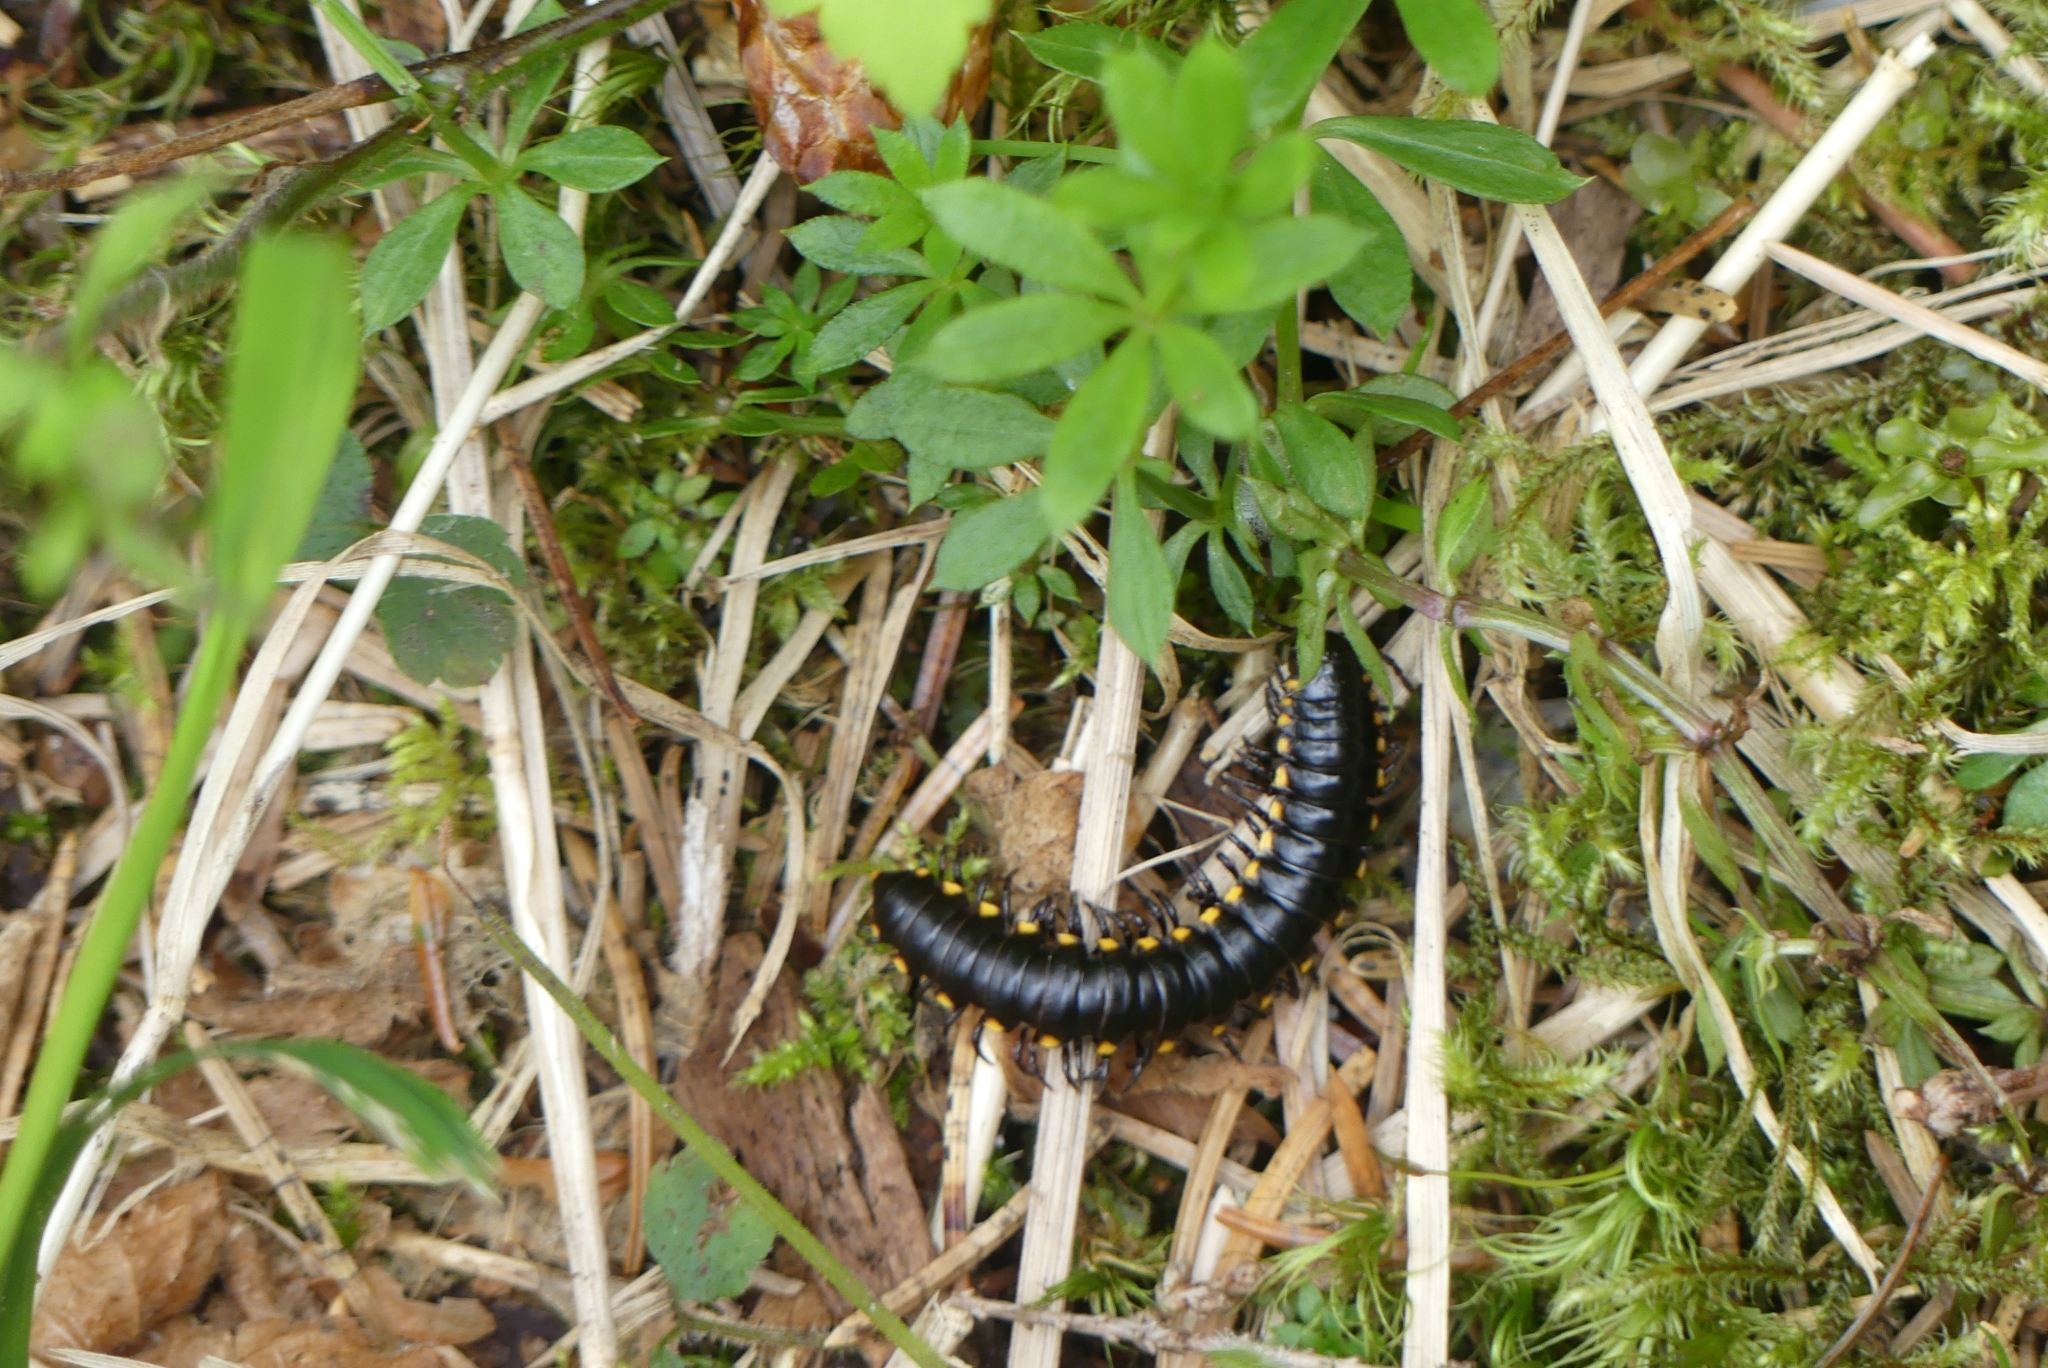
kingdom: Animalia
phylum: Arthropoda
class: Diplopoda
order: Polydesmida
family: Xystodesmidae
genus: Harpaphe
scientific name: Harpaphe haydeniana
